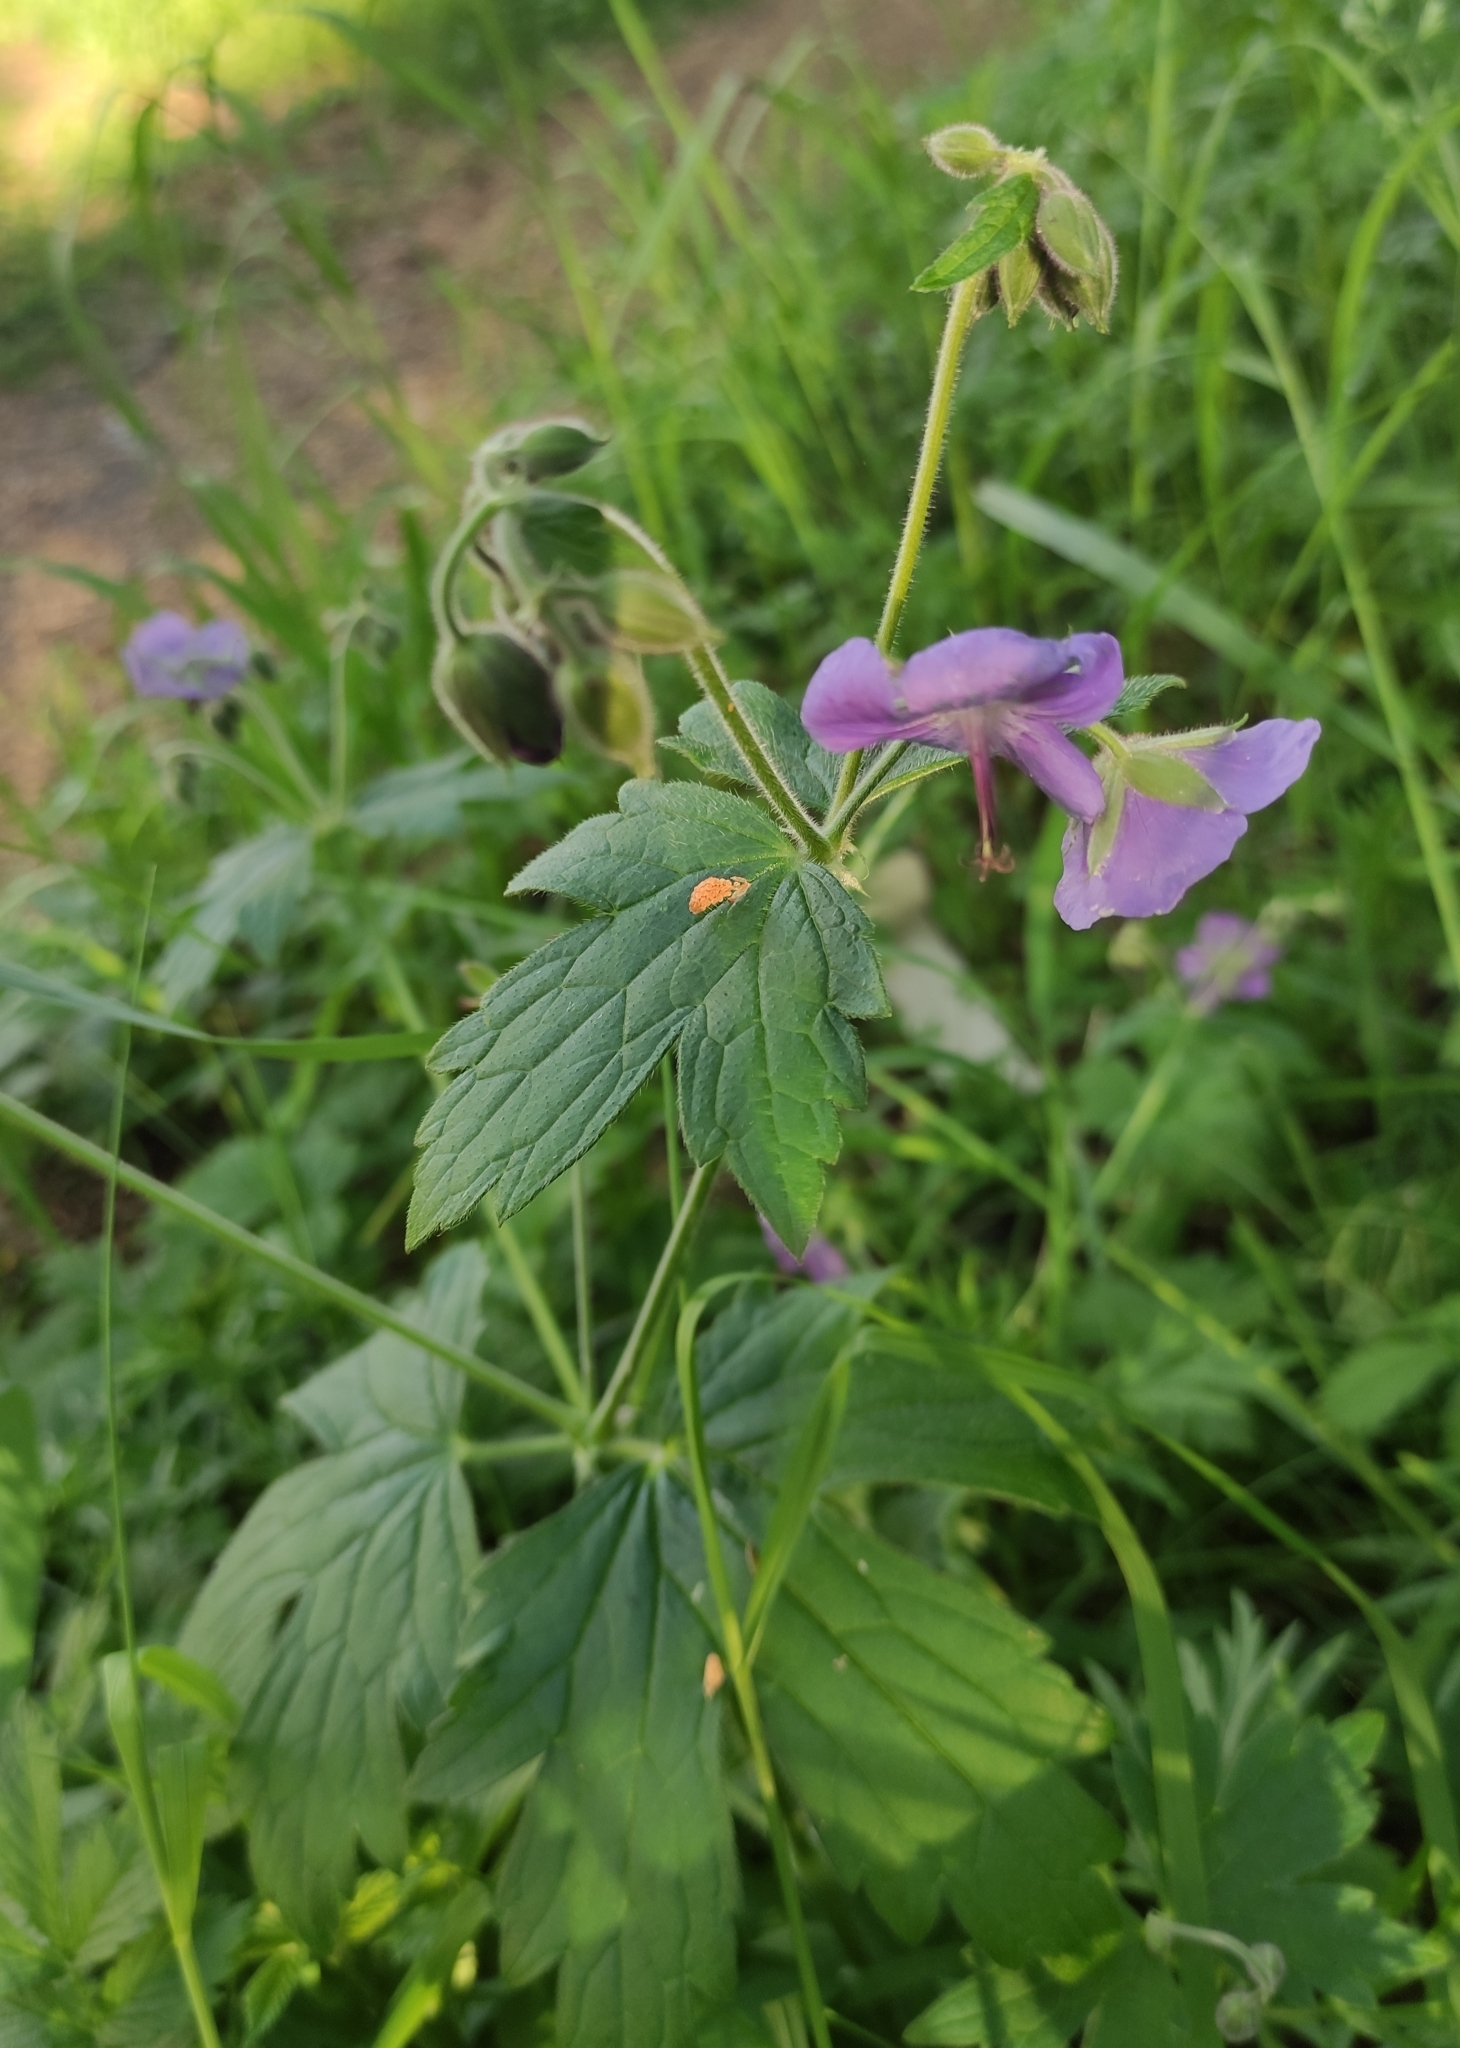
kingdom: Plantae
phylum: Tracheophyta
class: Magnoliopsida
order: Geraniales
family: Geraniaceae
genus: Geranium
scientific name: Geranium platyanthum
